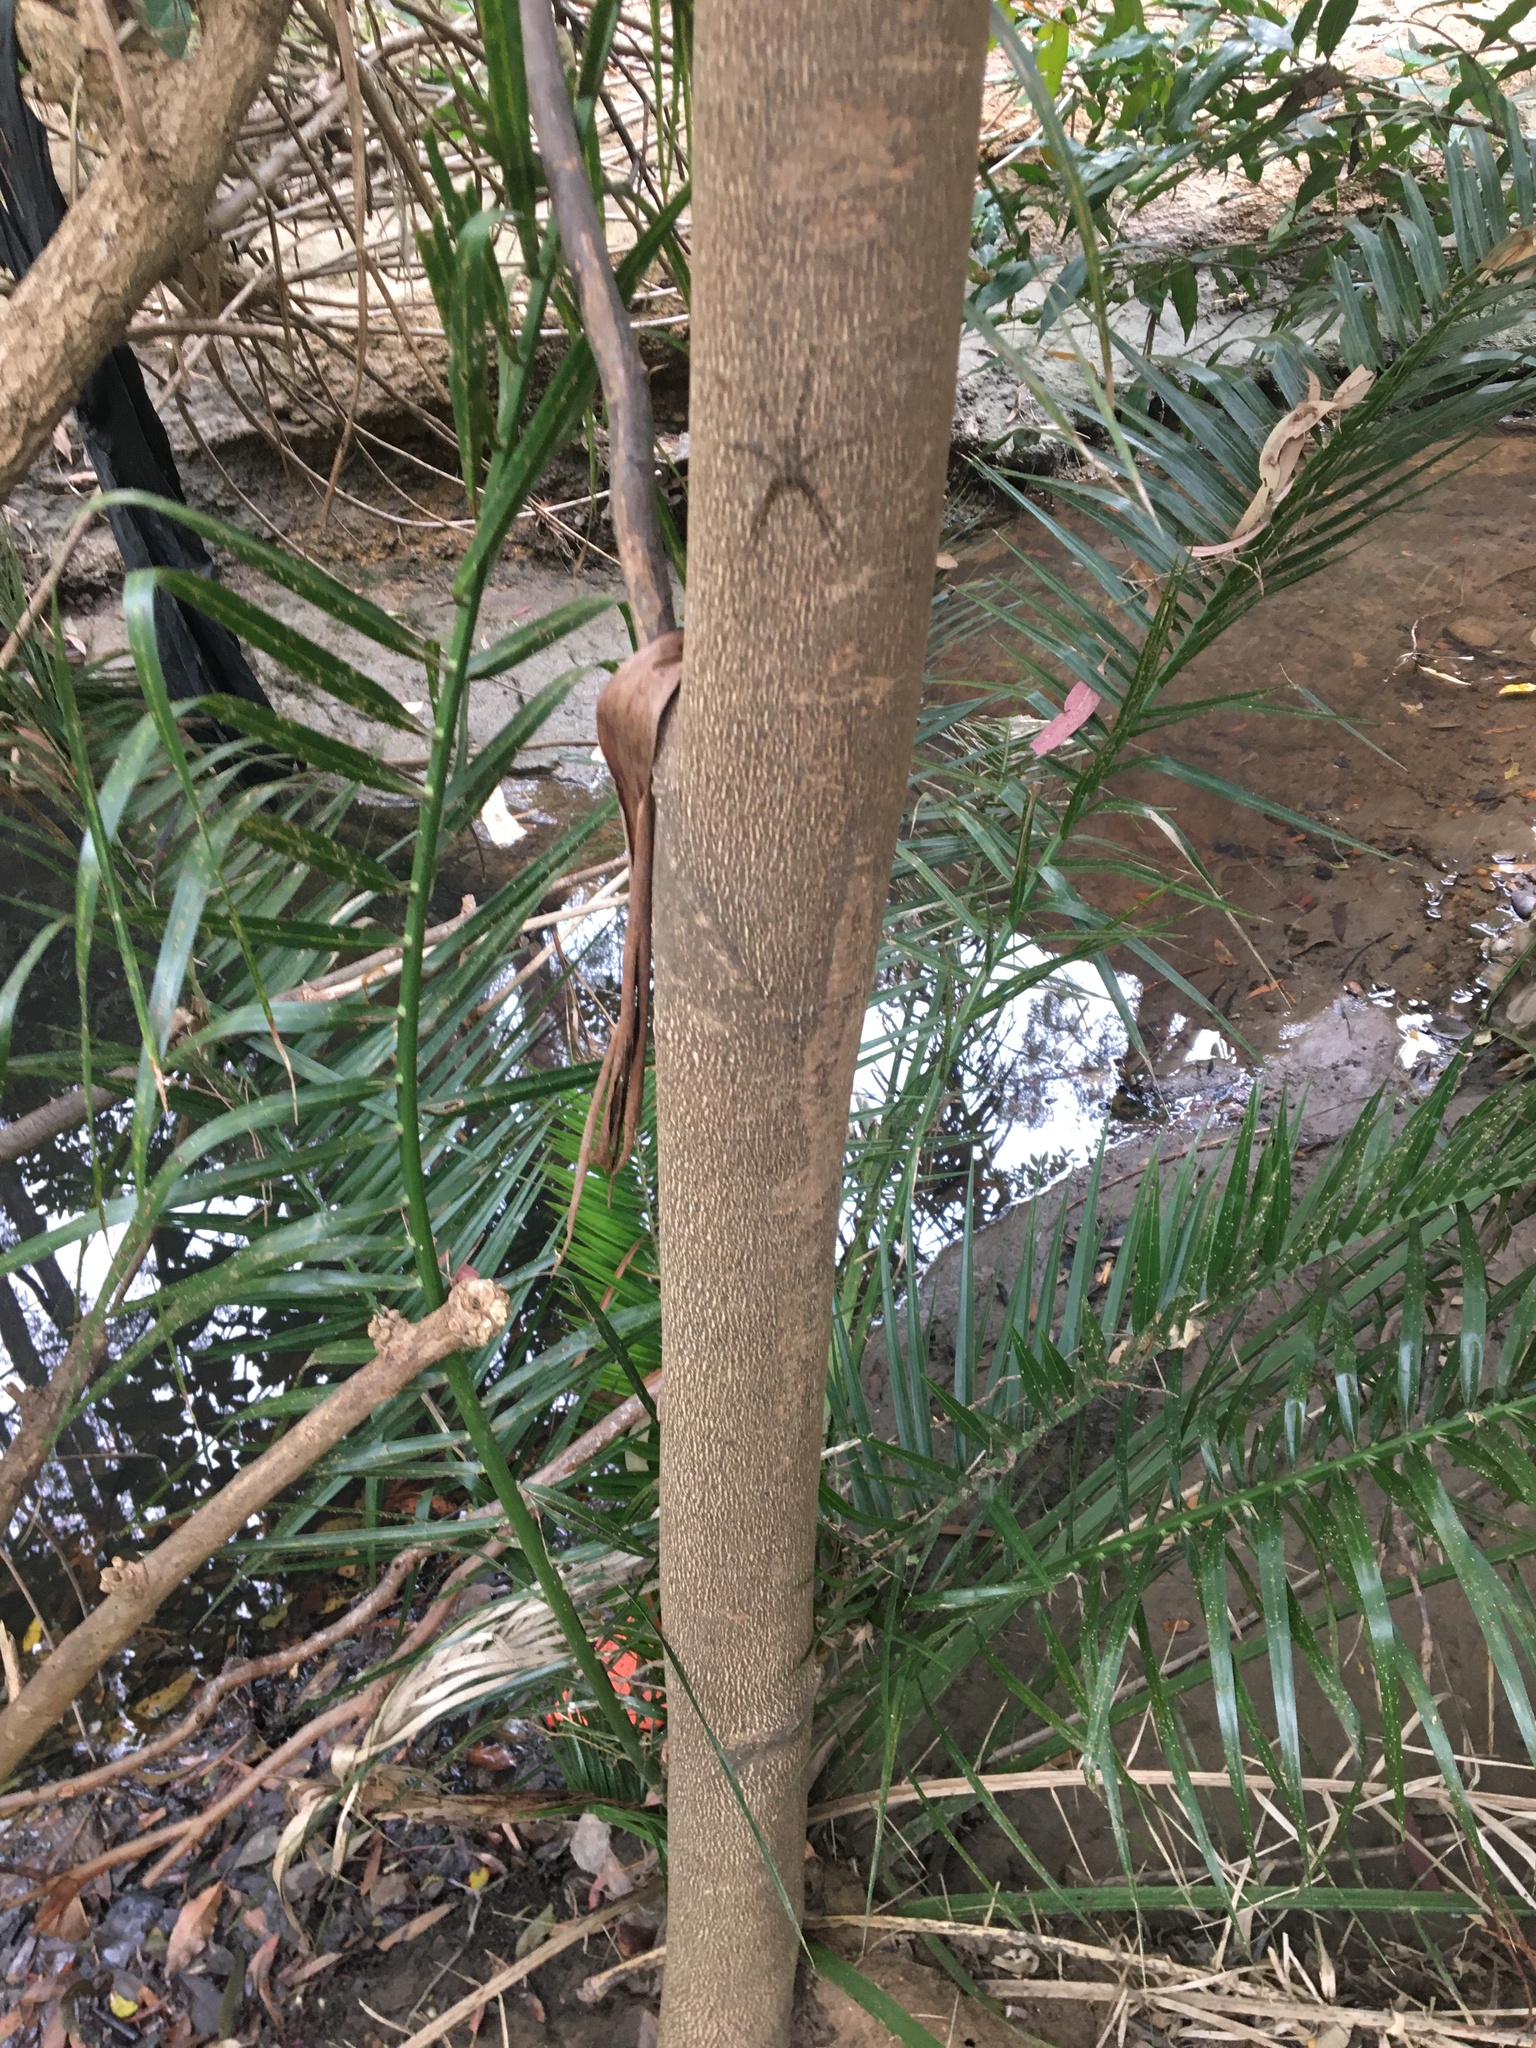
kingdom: Plantae
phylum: Tracheophyta
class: Magnoliopsida
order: Myrtales
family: Myrtaceae
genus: Syzygium
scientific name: Syzygium floribundum
